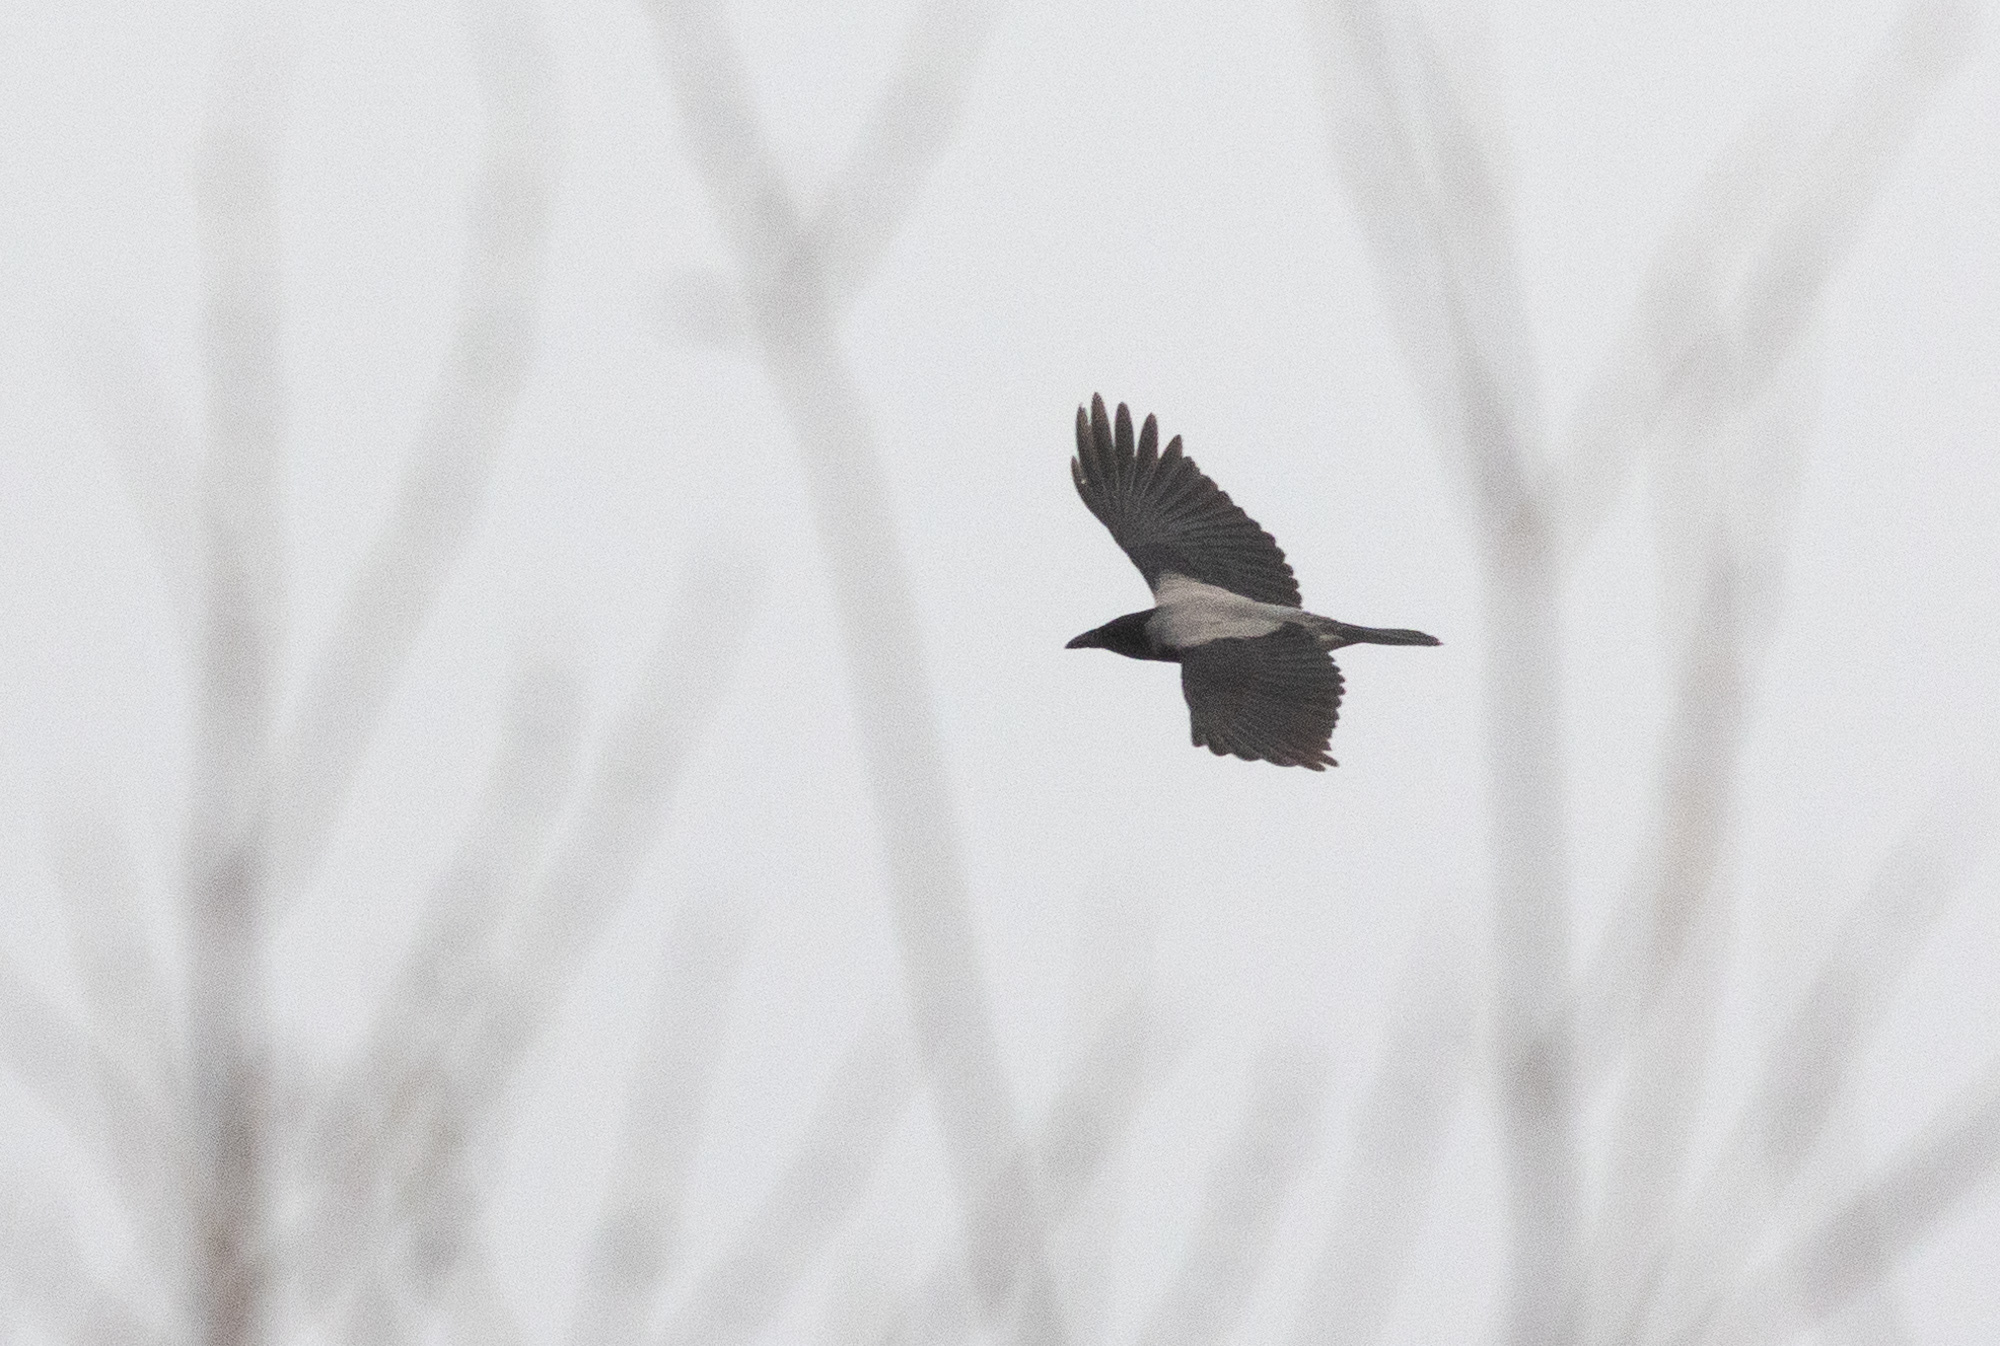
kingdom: Animalia
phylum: Chordata
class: Aves
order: Passeriformes
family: Corvidae
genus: Corvus
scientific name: Corvus cornix
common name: Hooded crow
